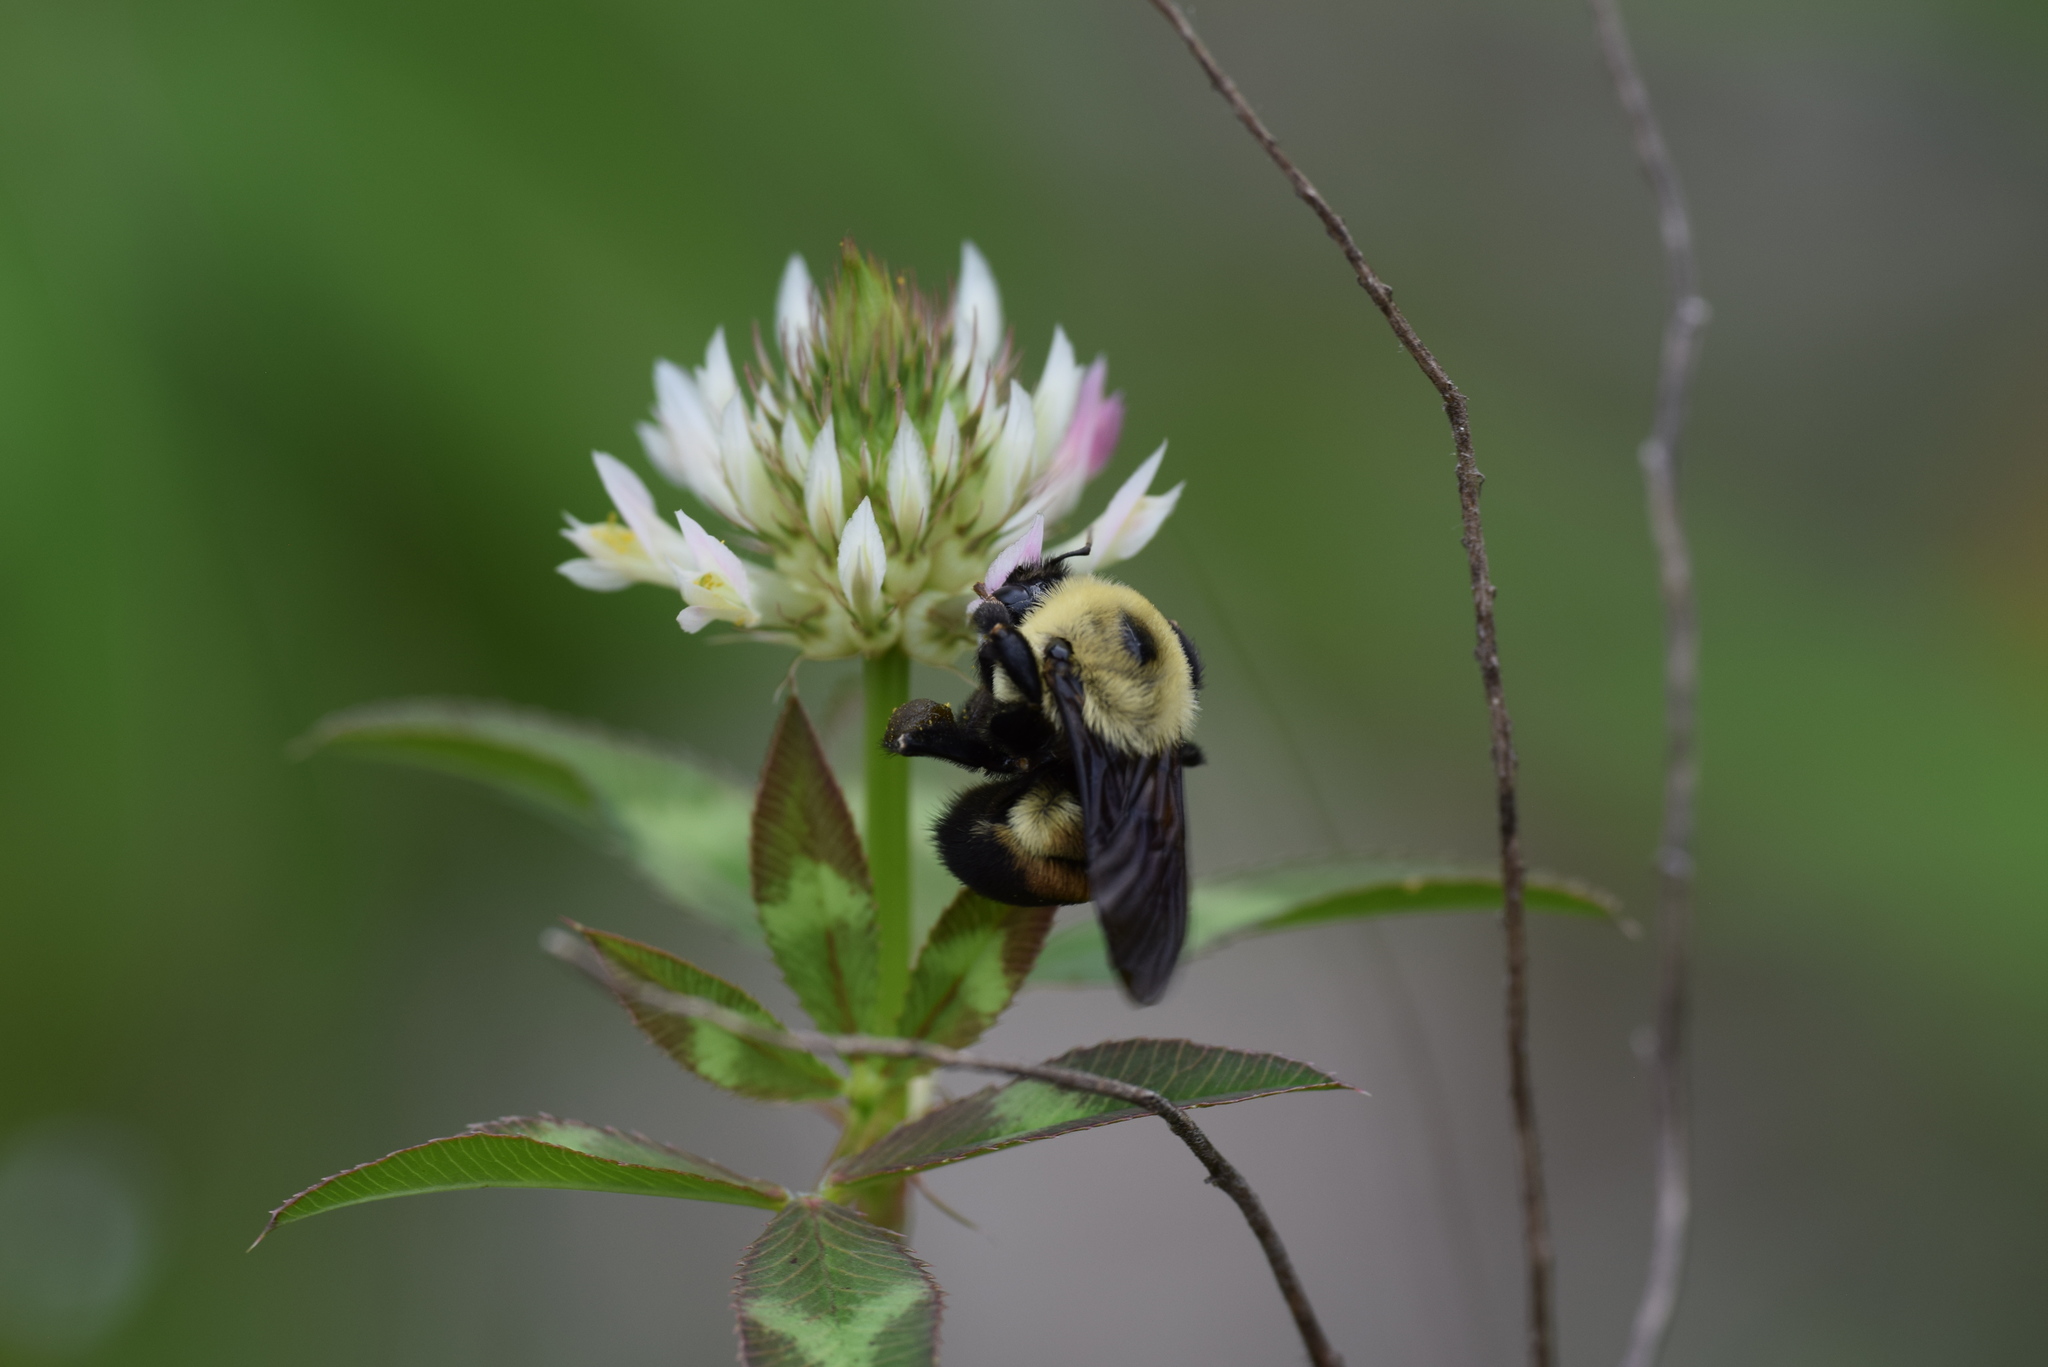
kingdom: Animalia
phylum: Arthropoda
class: Insecta
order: Hymenoptera
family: Apidae
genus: Bombus
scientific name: Bombus griseocollis
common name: Brown-belted bumble bee
